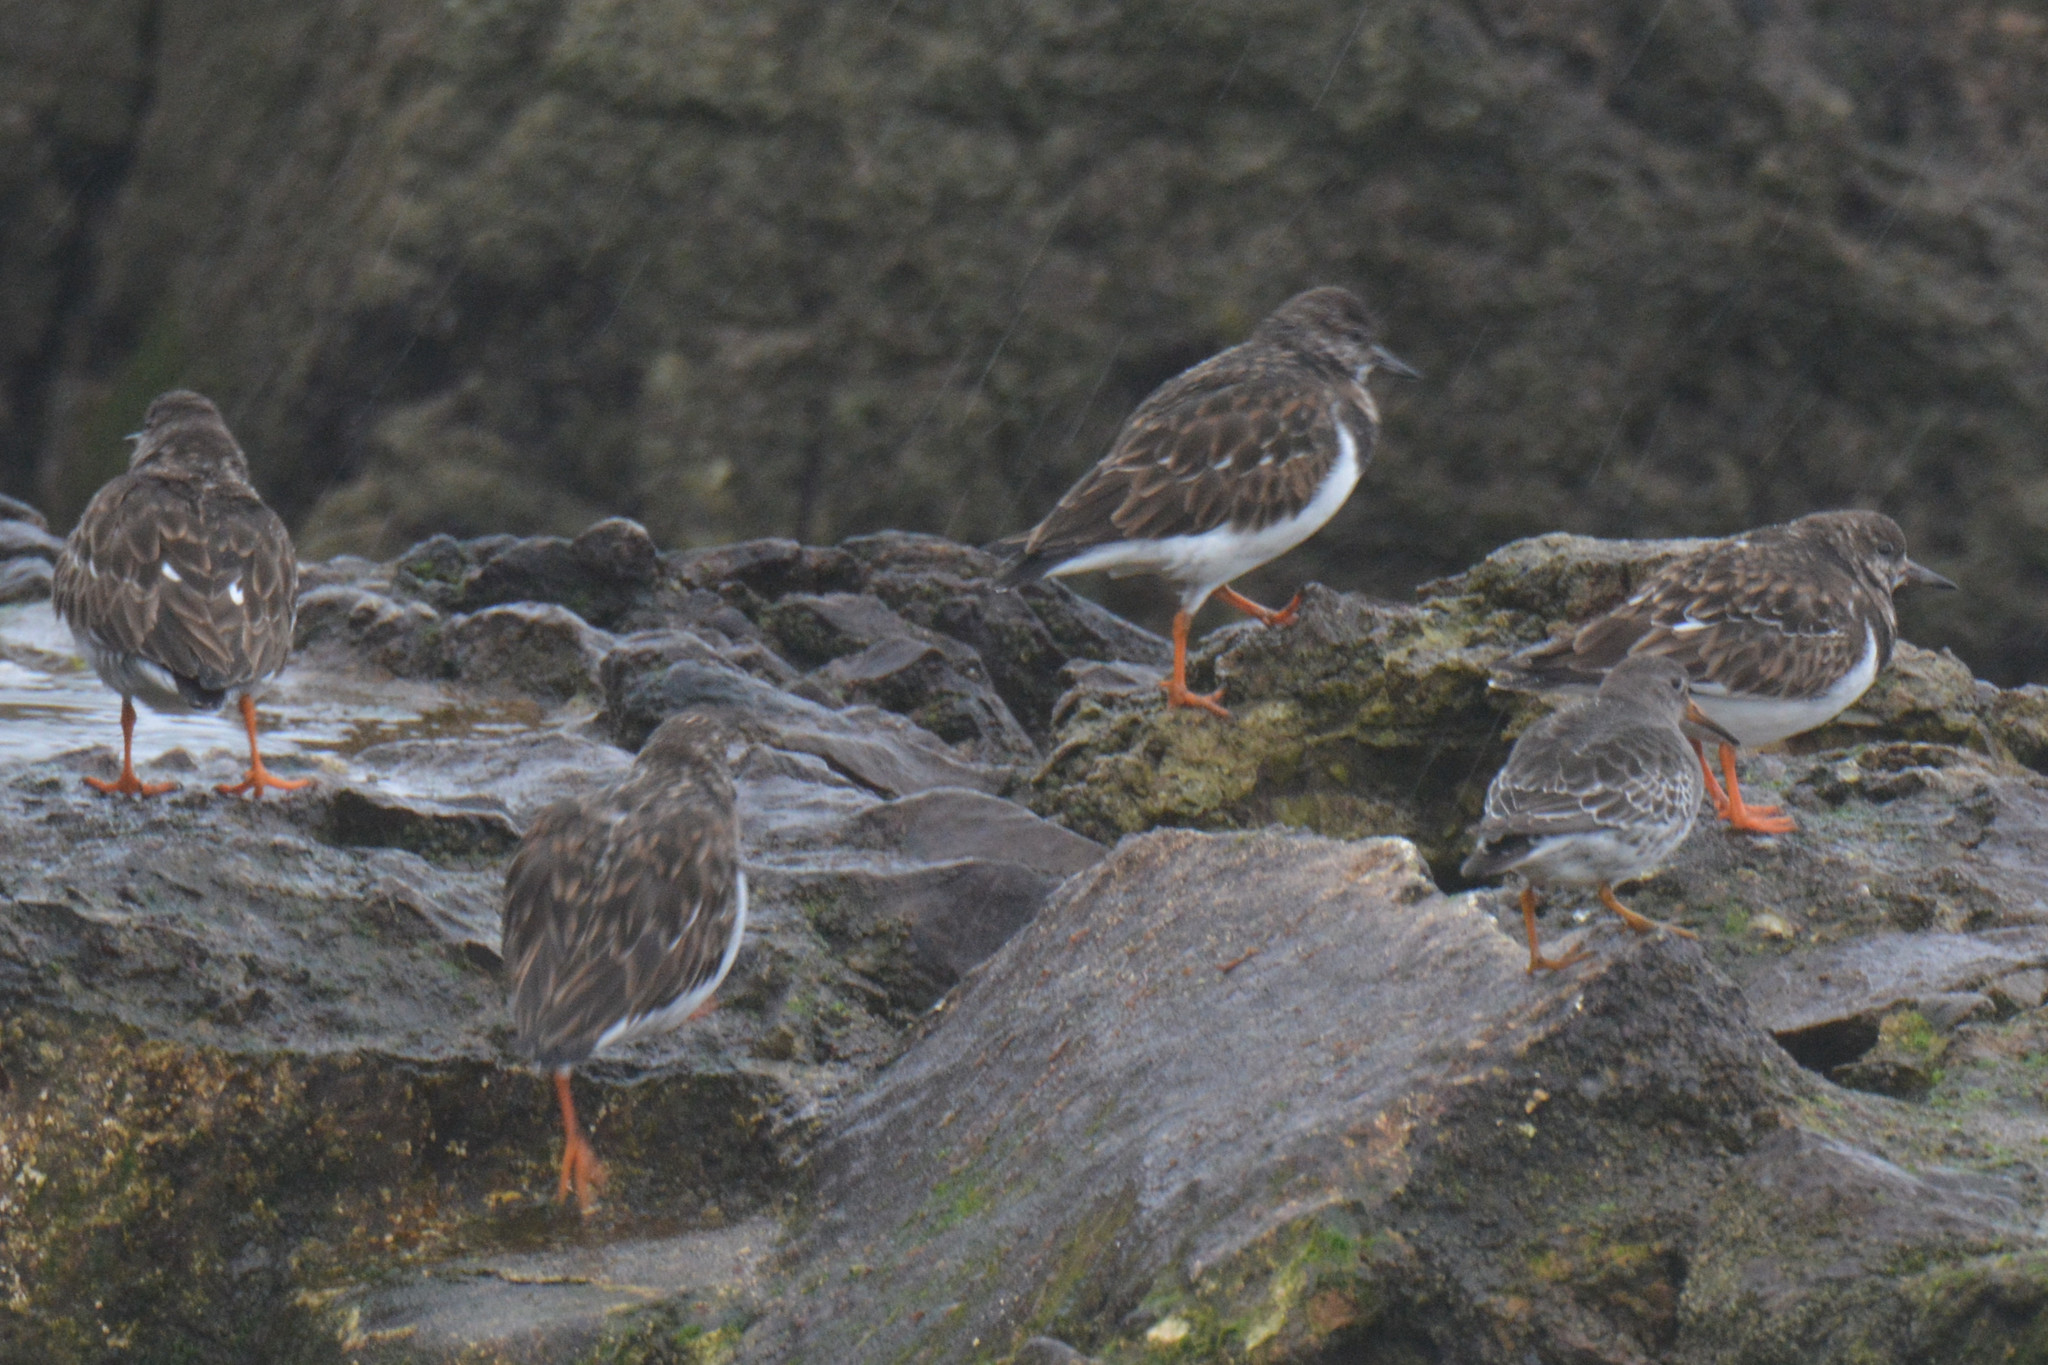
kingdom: Animalia
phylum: Chordata
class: Aves
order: Charadriiformes
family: Scolopacidae
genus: Arenaria
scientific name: Arenaria interpres
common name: Ruddy turnstone
